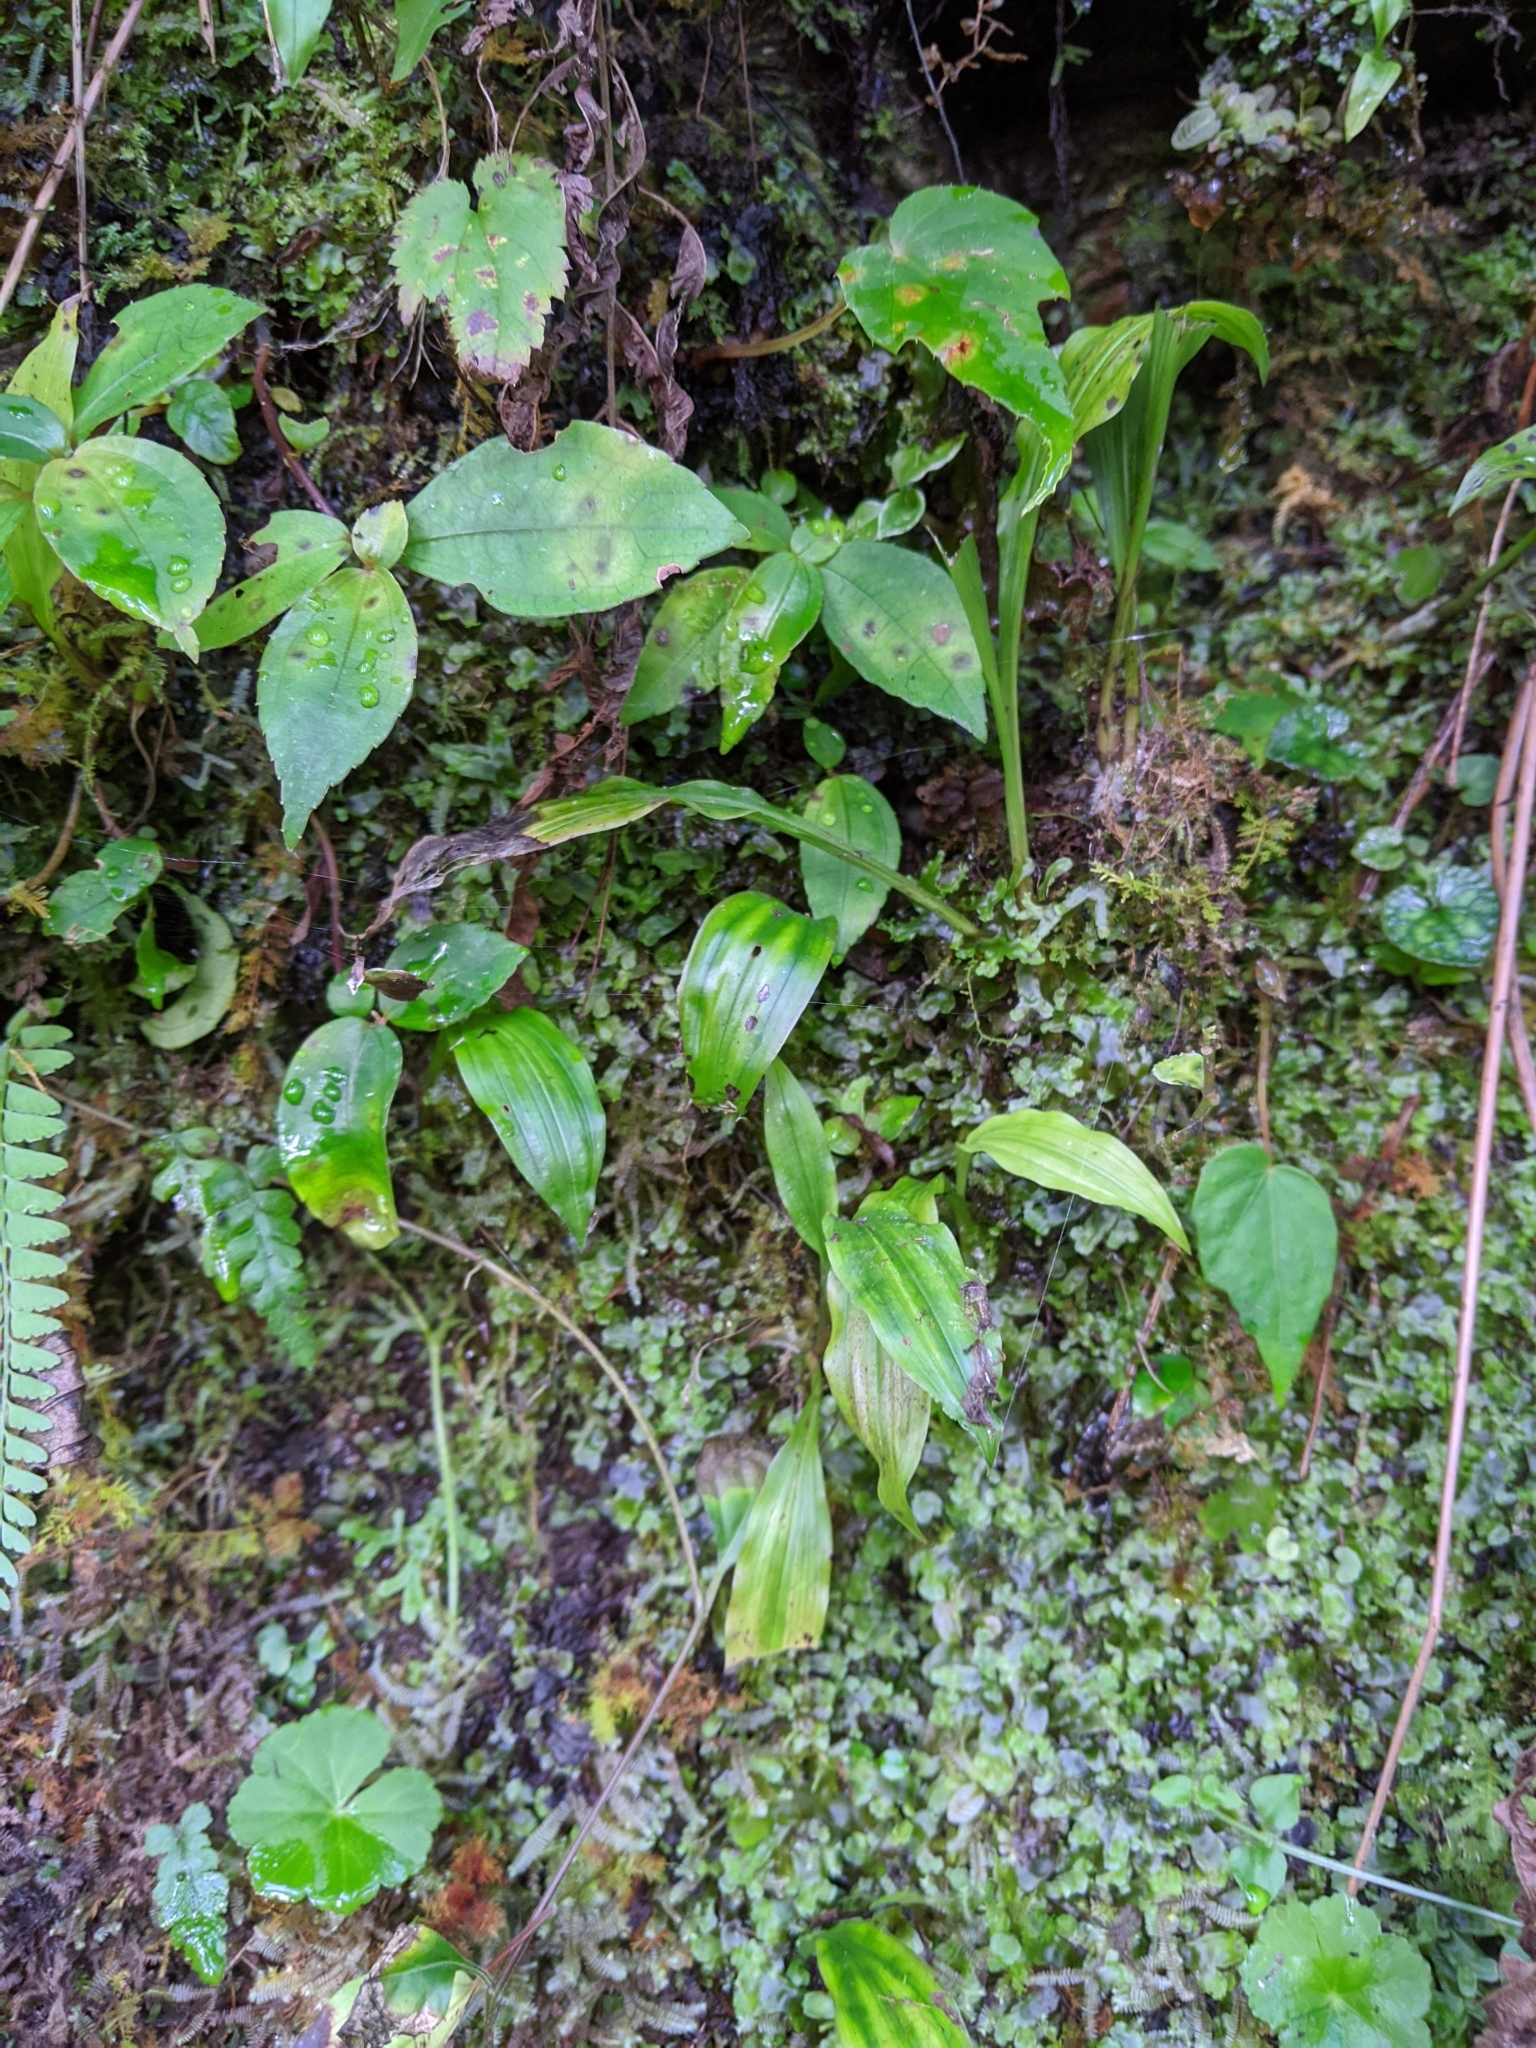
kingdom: Plantae
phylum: Tracheophyta
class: Liliopsida
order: Asparagales
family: Orchidaceae
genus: Pleione
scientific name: Pleione formosana
